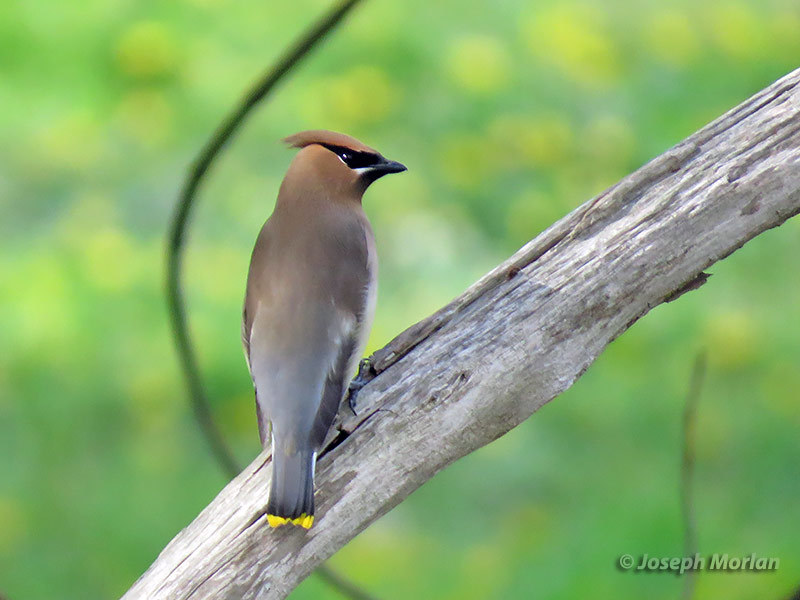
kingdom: Animalia
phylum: Chordata
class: Aves
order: Passeriformes
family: Bombycillidae
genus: Bombycilla
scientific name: Bombycilla cedrorum
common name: Cedar waxwing
